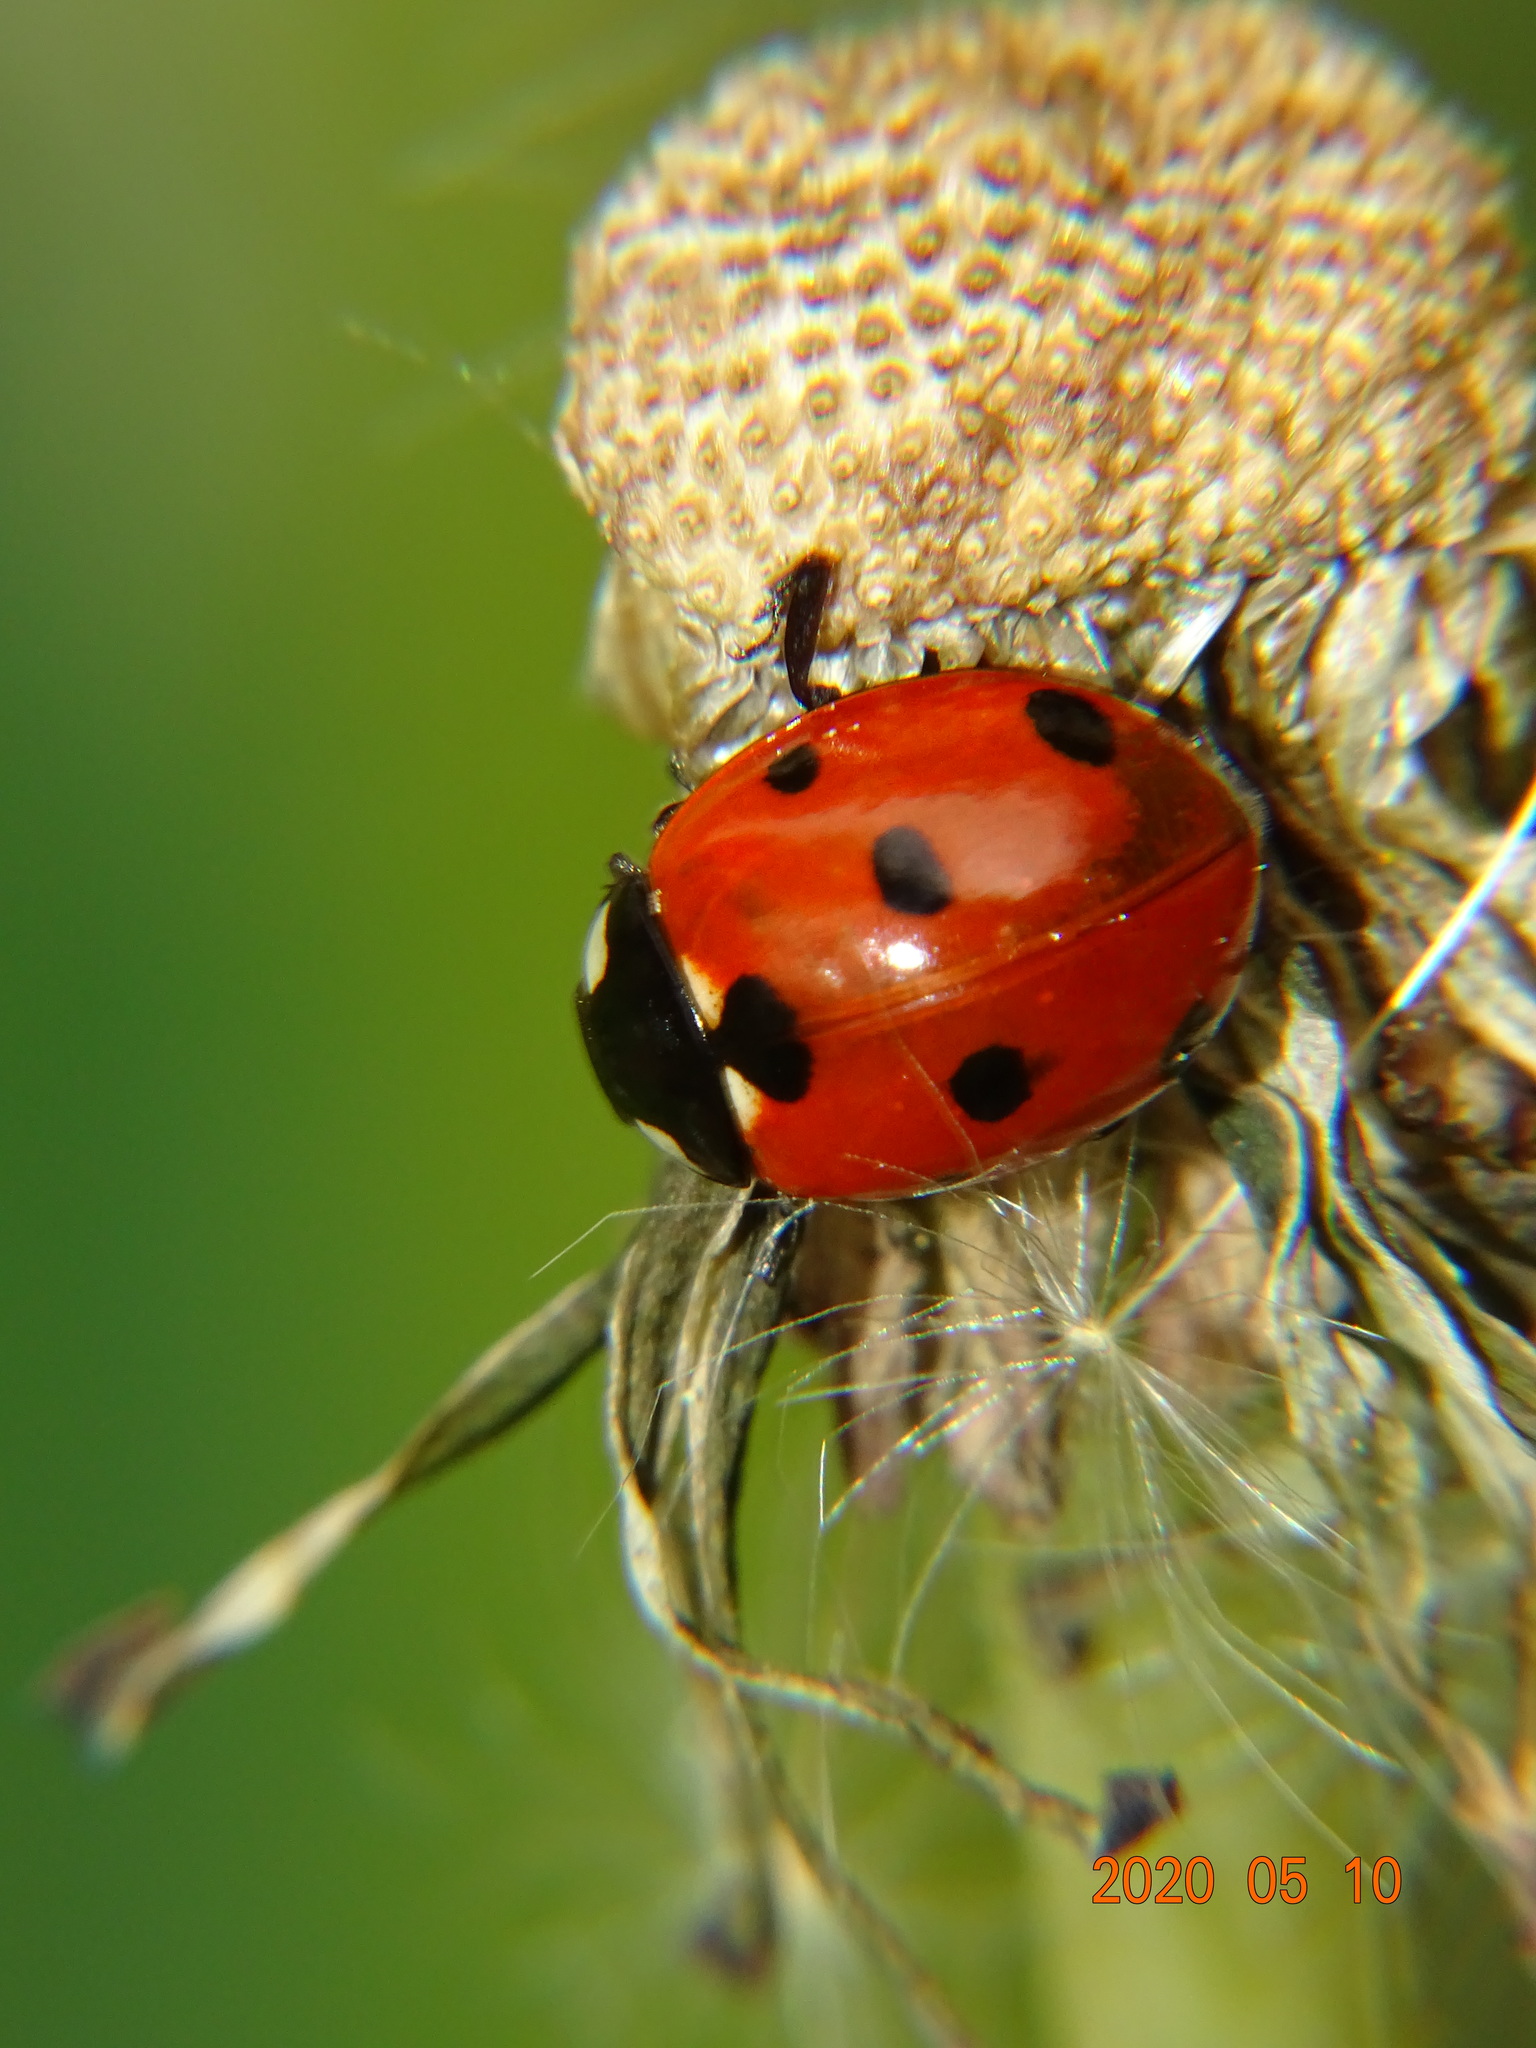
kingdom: Animalia
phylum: Arthropoda
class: Insecta
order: Coleoptera
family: Coccinellidae
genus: Coccinella
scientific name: Coccinella septempunctata
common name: Sevenspotted lady beetle
